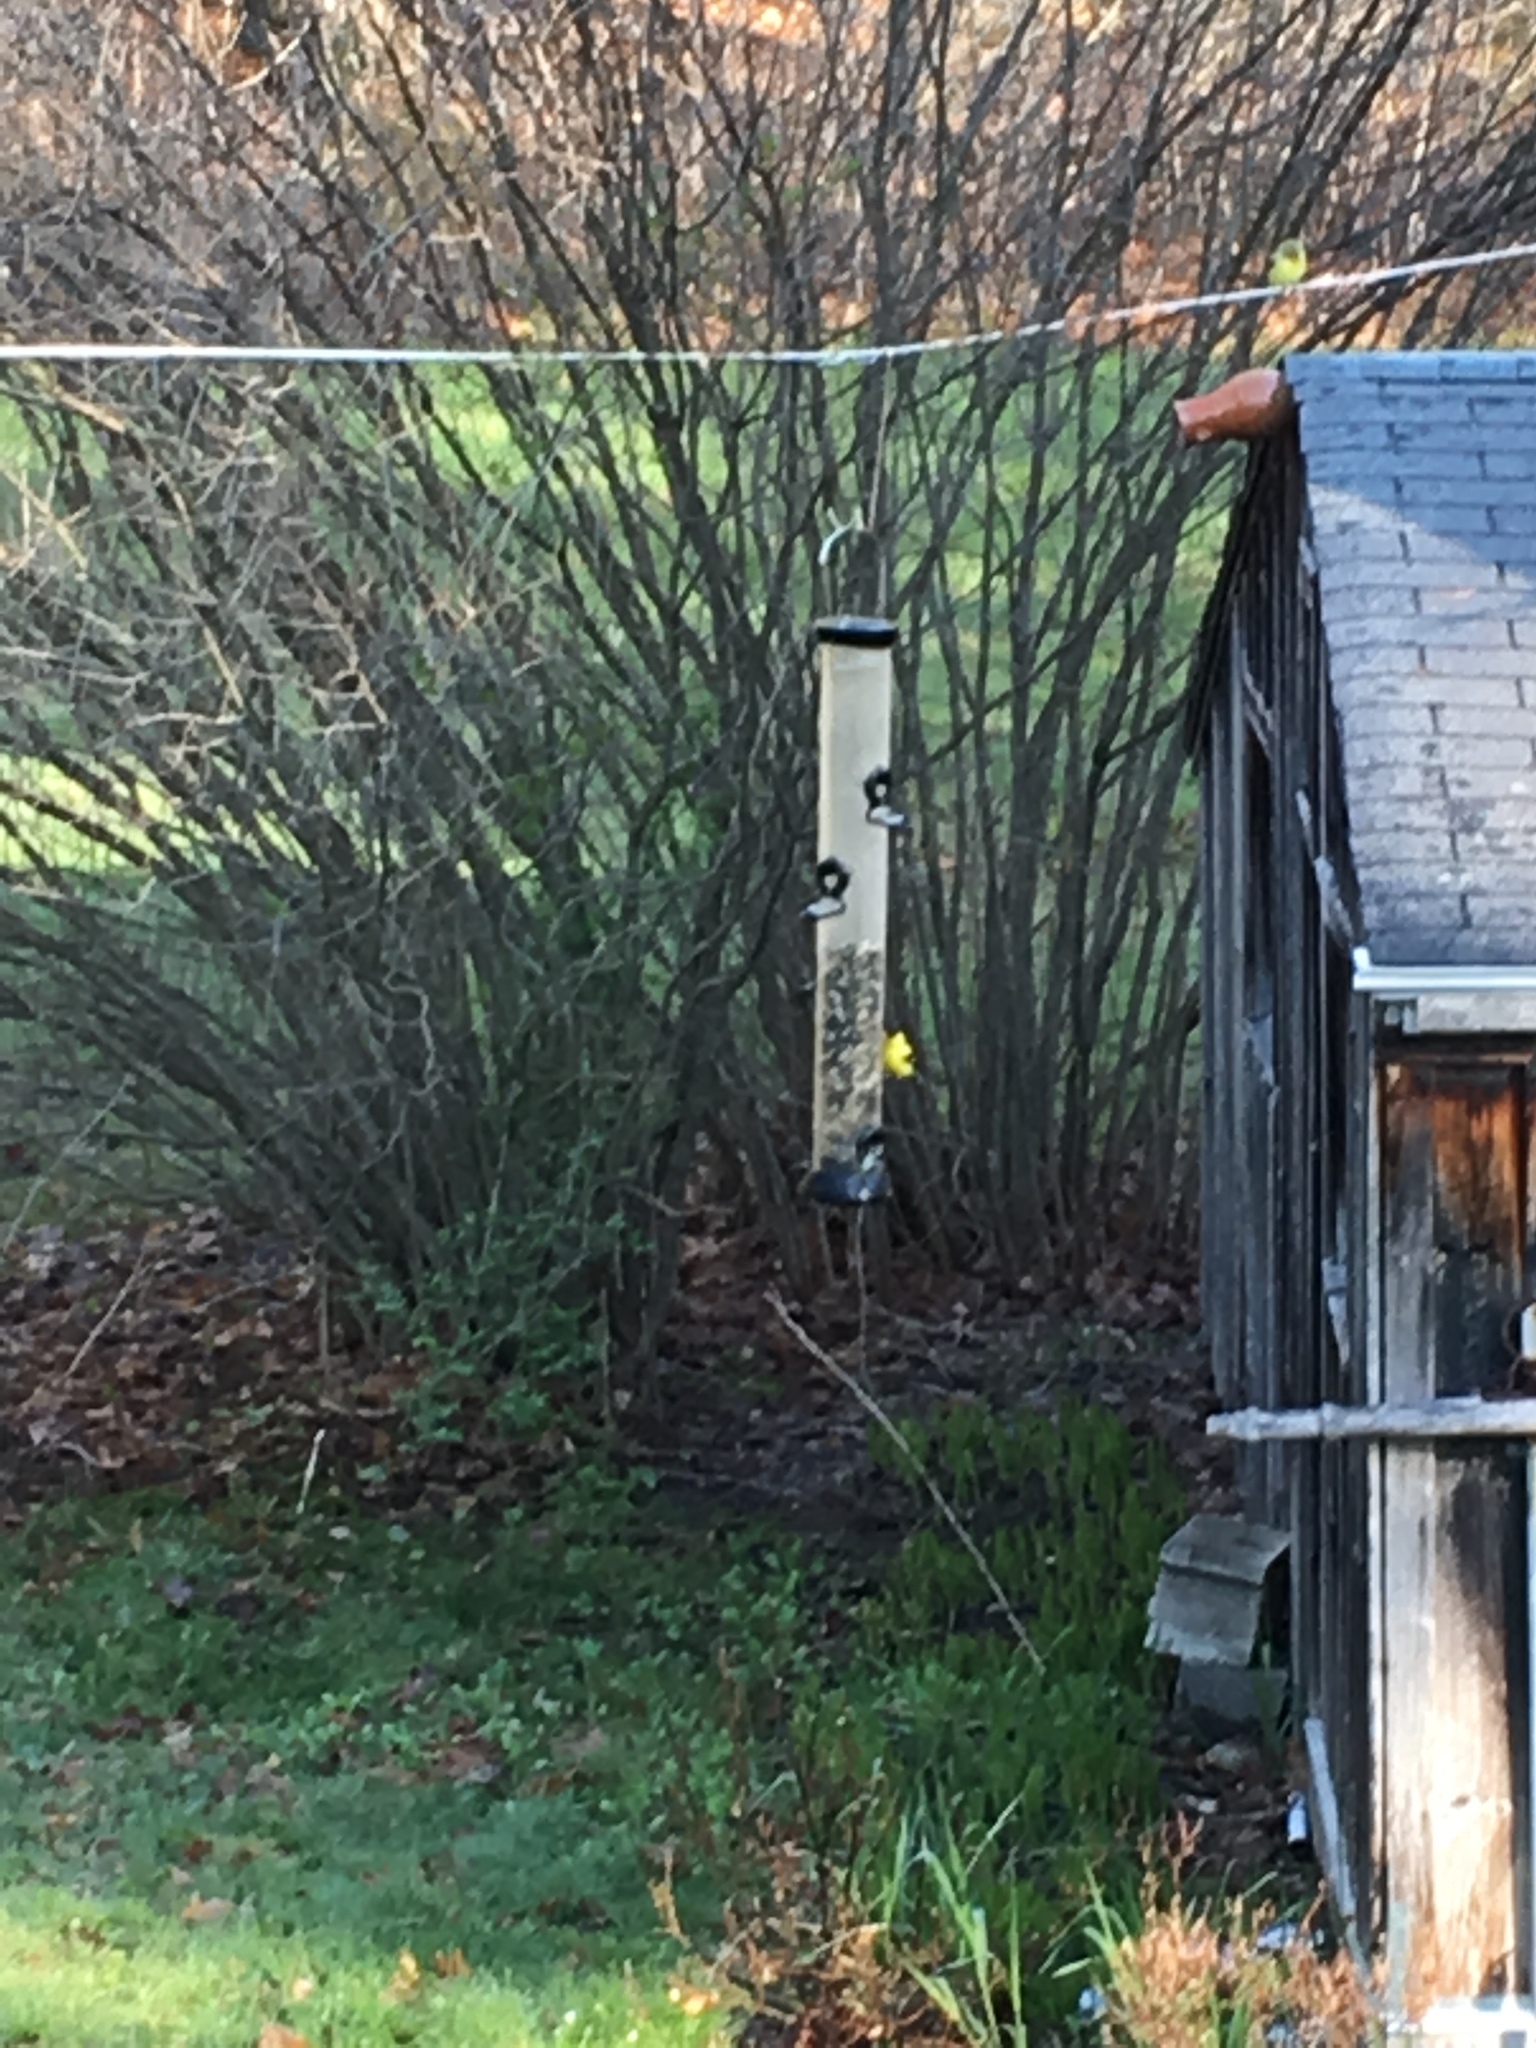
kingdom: Animalia
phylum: Chordata
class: Aves
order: Passeriformes
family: Fringillidae
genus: Spinus
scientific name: Spinus tristis
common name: American goldfinch
